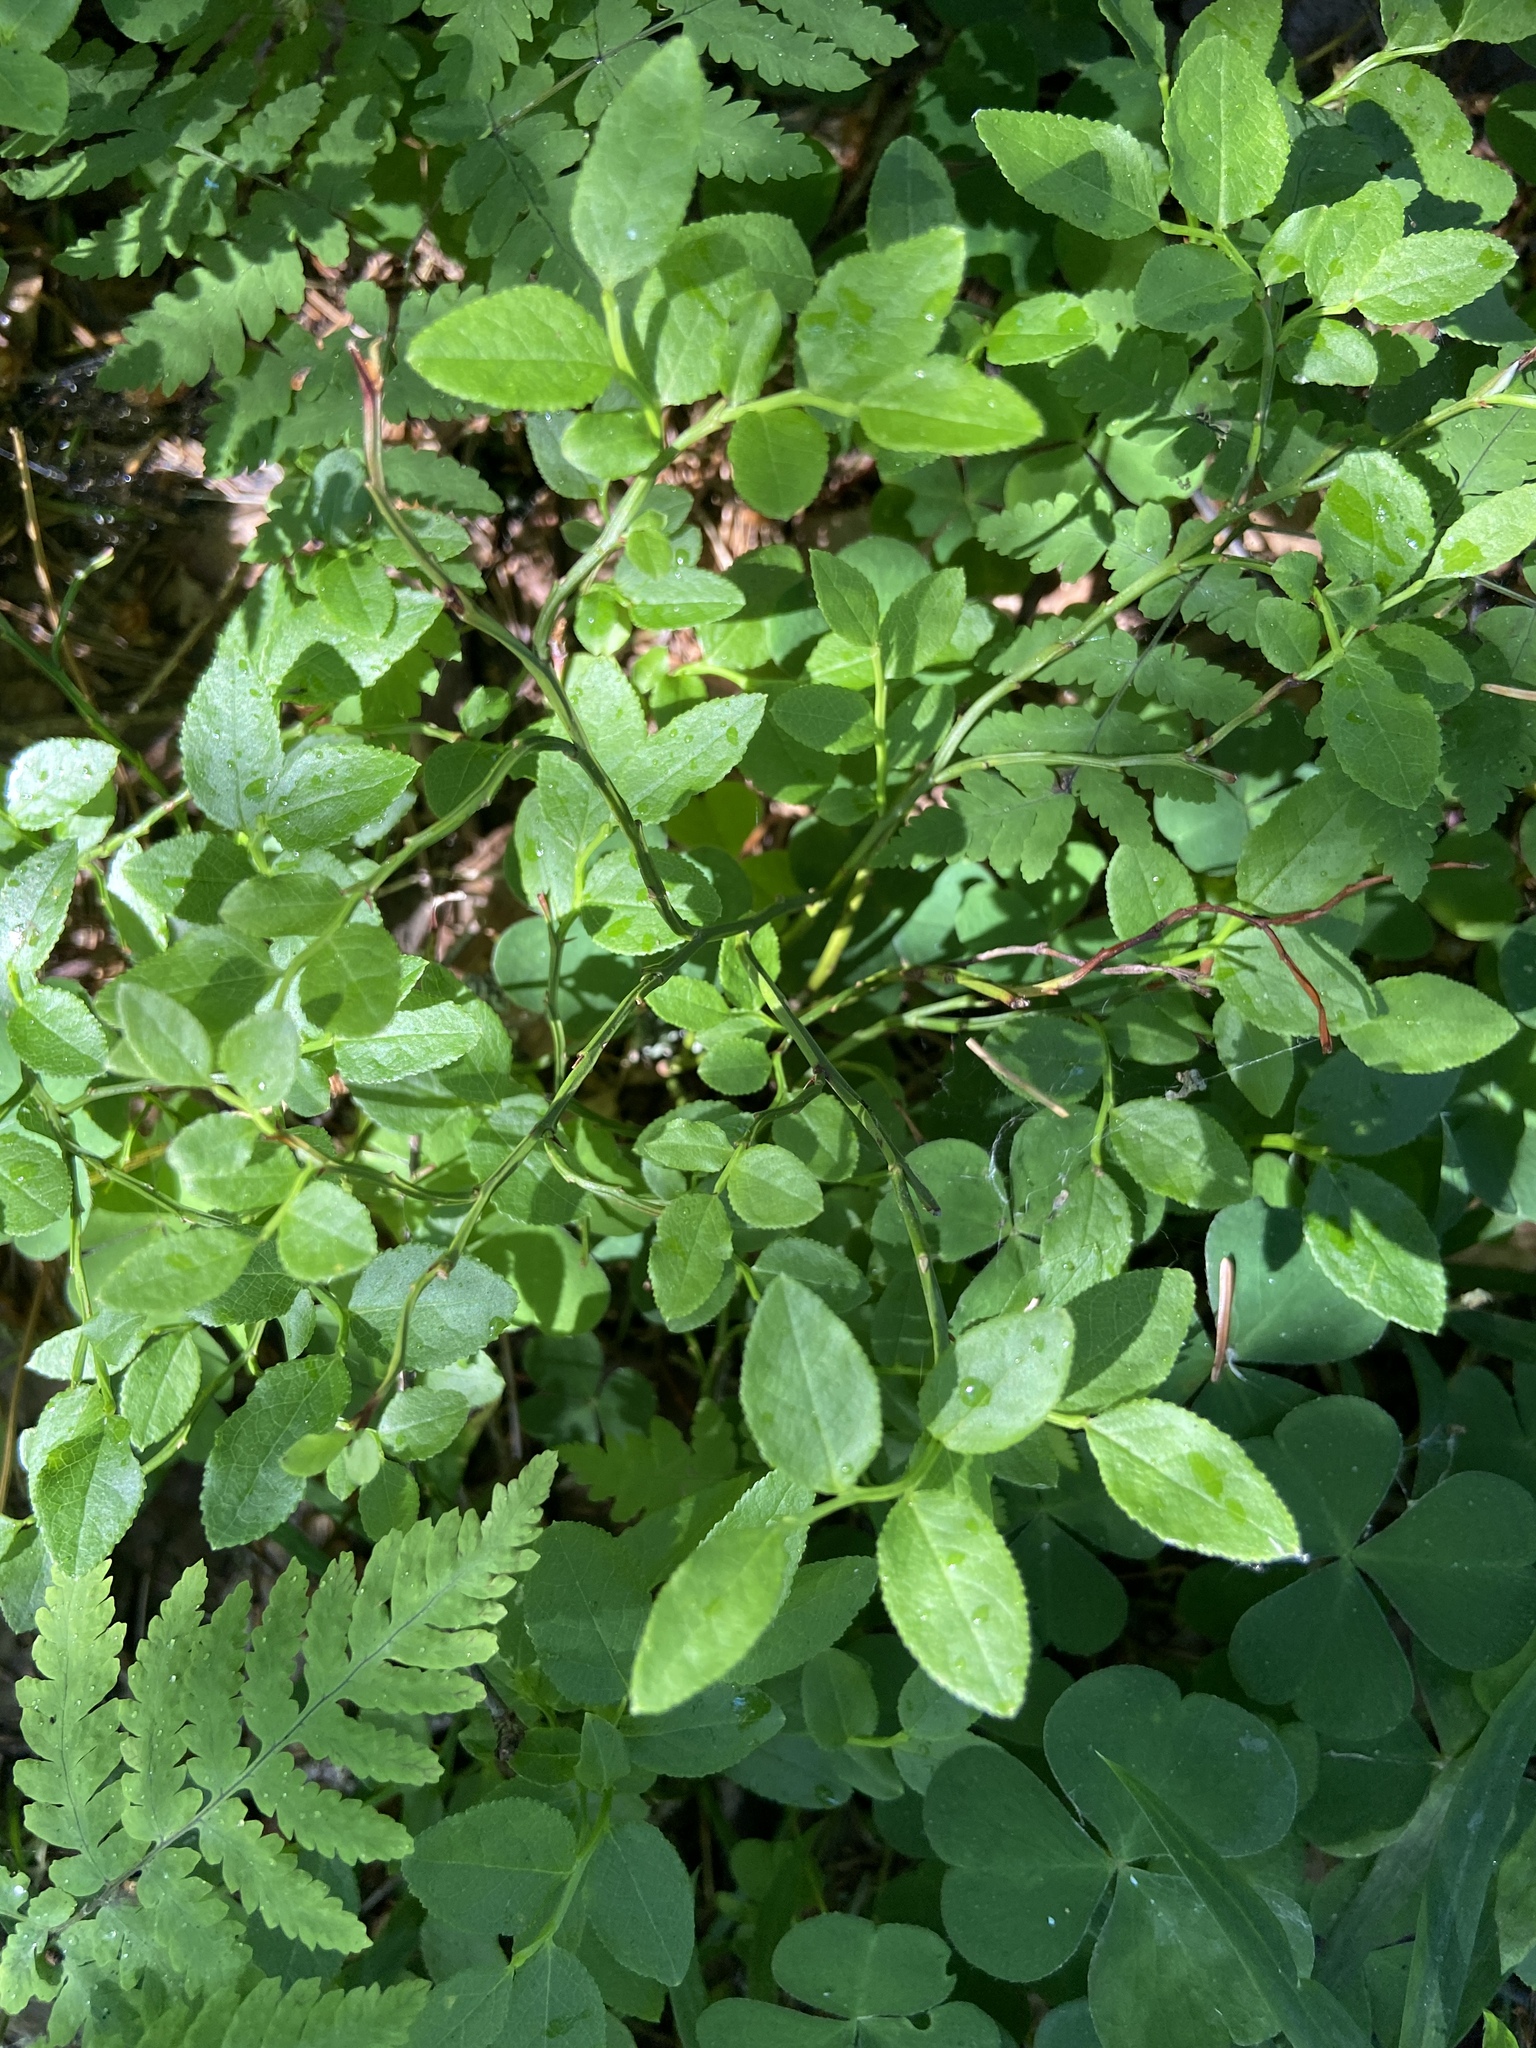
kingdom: Plantae
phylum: Tracheophyta
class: Magnoliopsida
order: Ericales
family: Ericaceae
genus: Vaccinium
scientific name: Vaccinium myrtillus
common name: Bilberry
